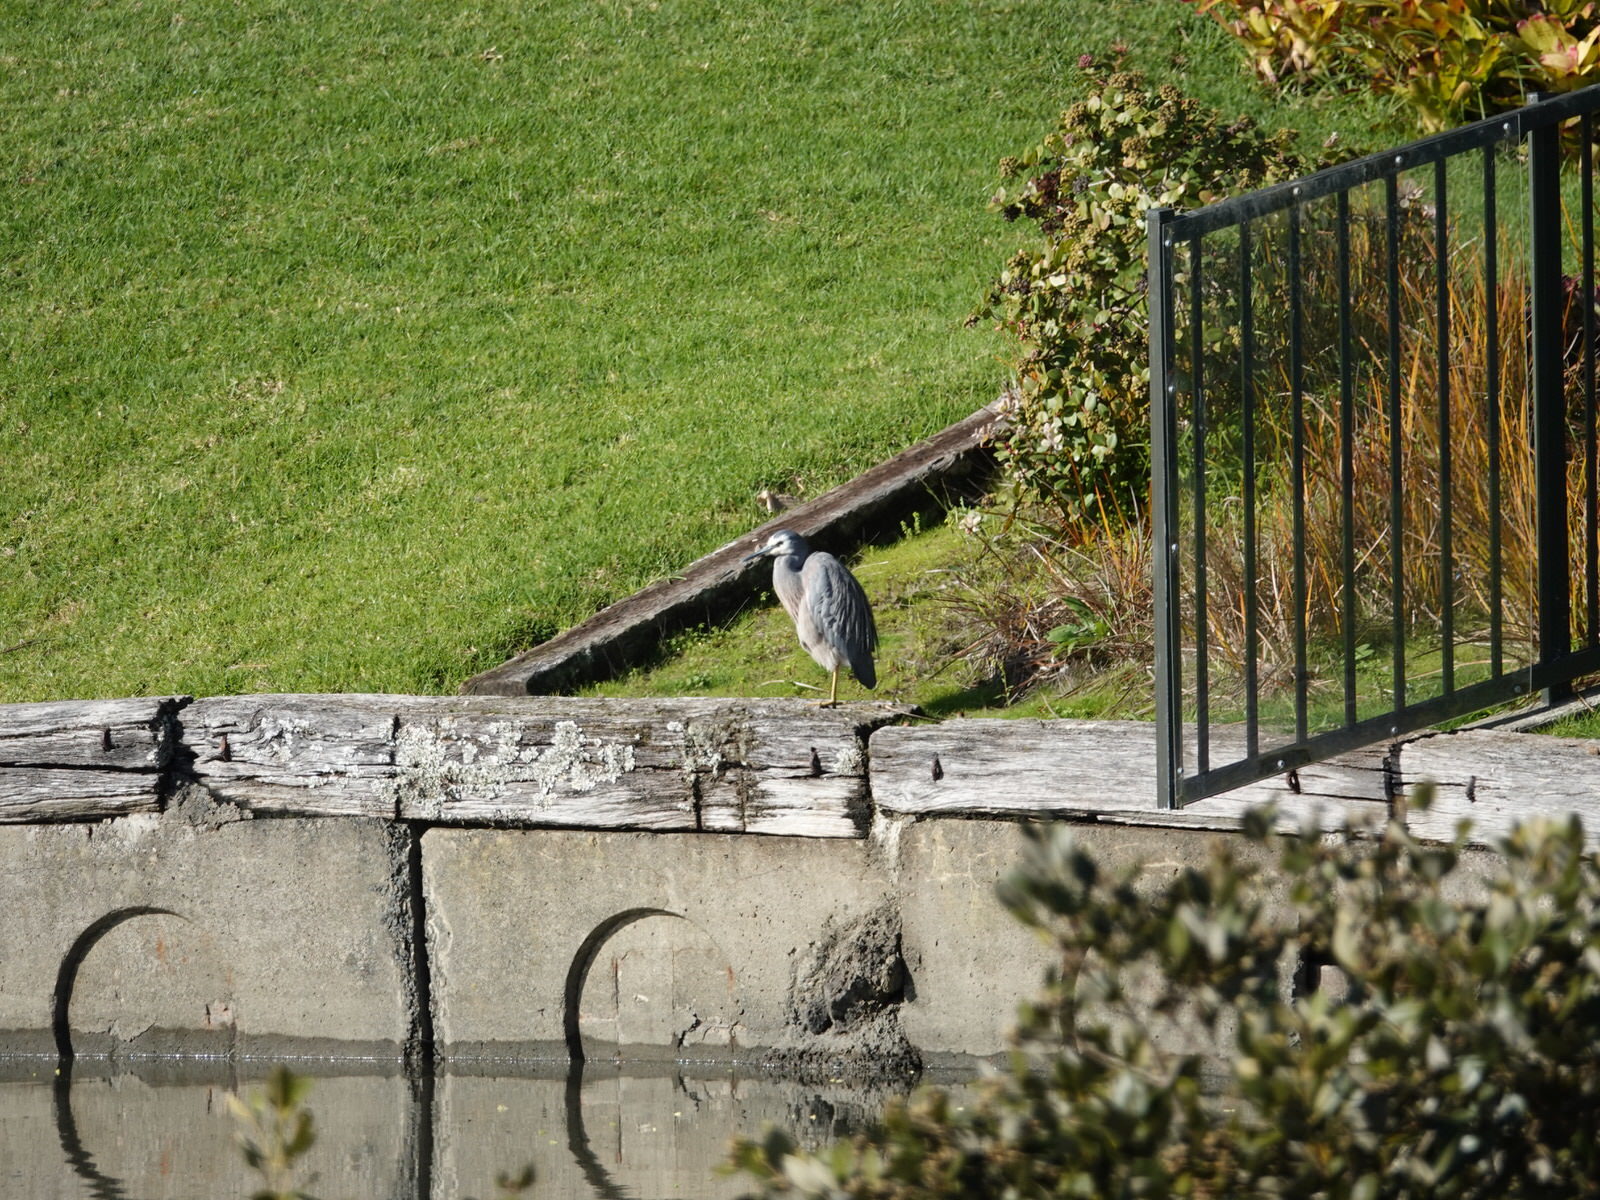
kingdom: Animalia
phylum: Chordata
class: Aves
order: Pelecaniformes
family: Ardeidae
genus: Egretta
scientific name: Egretta novaehollandiae
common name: White-faced heron
